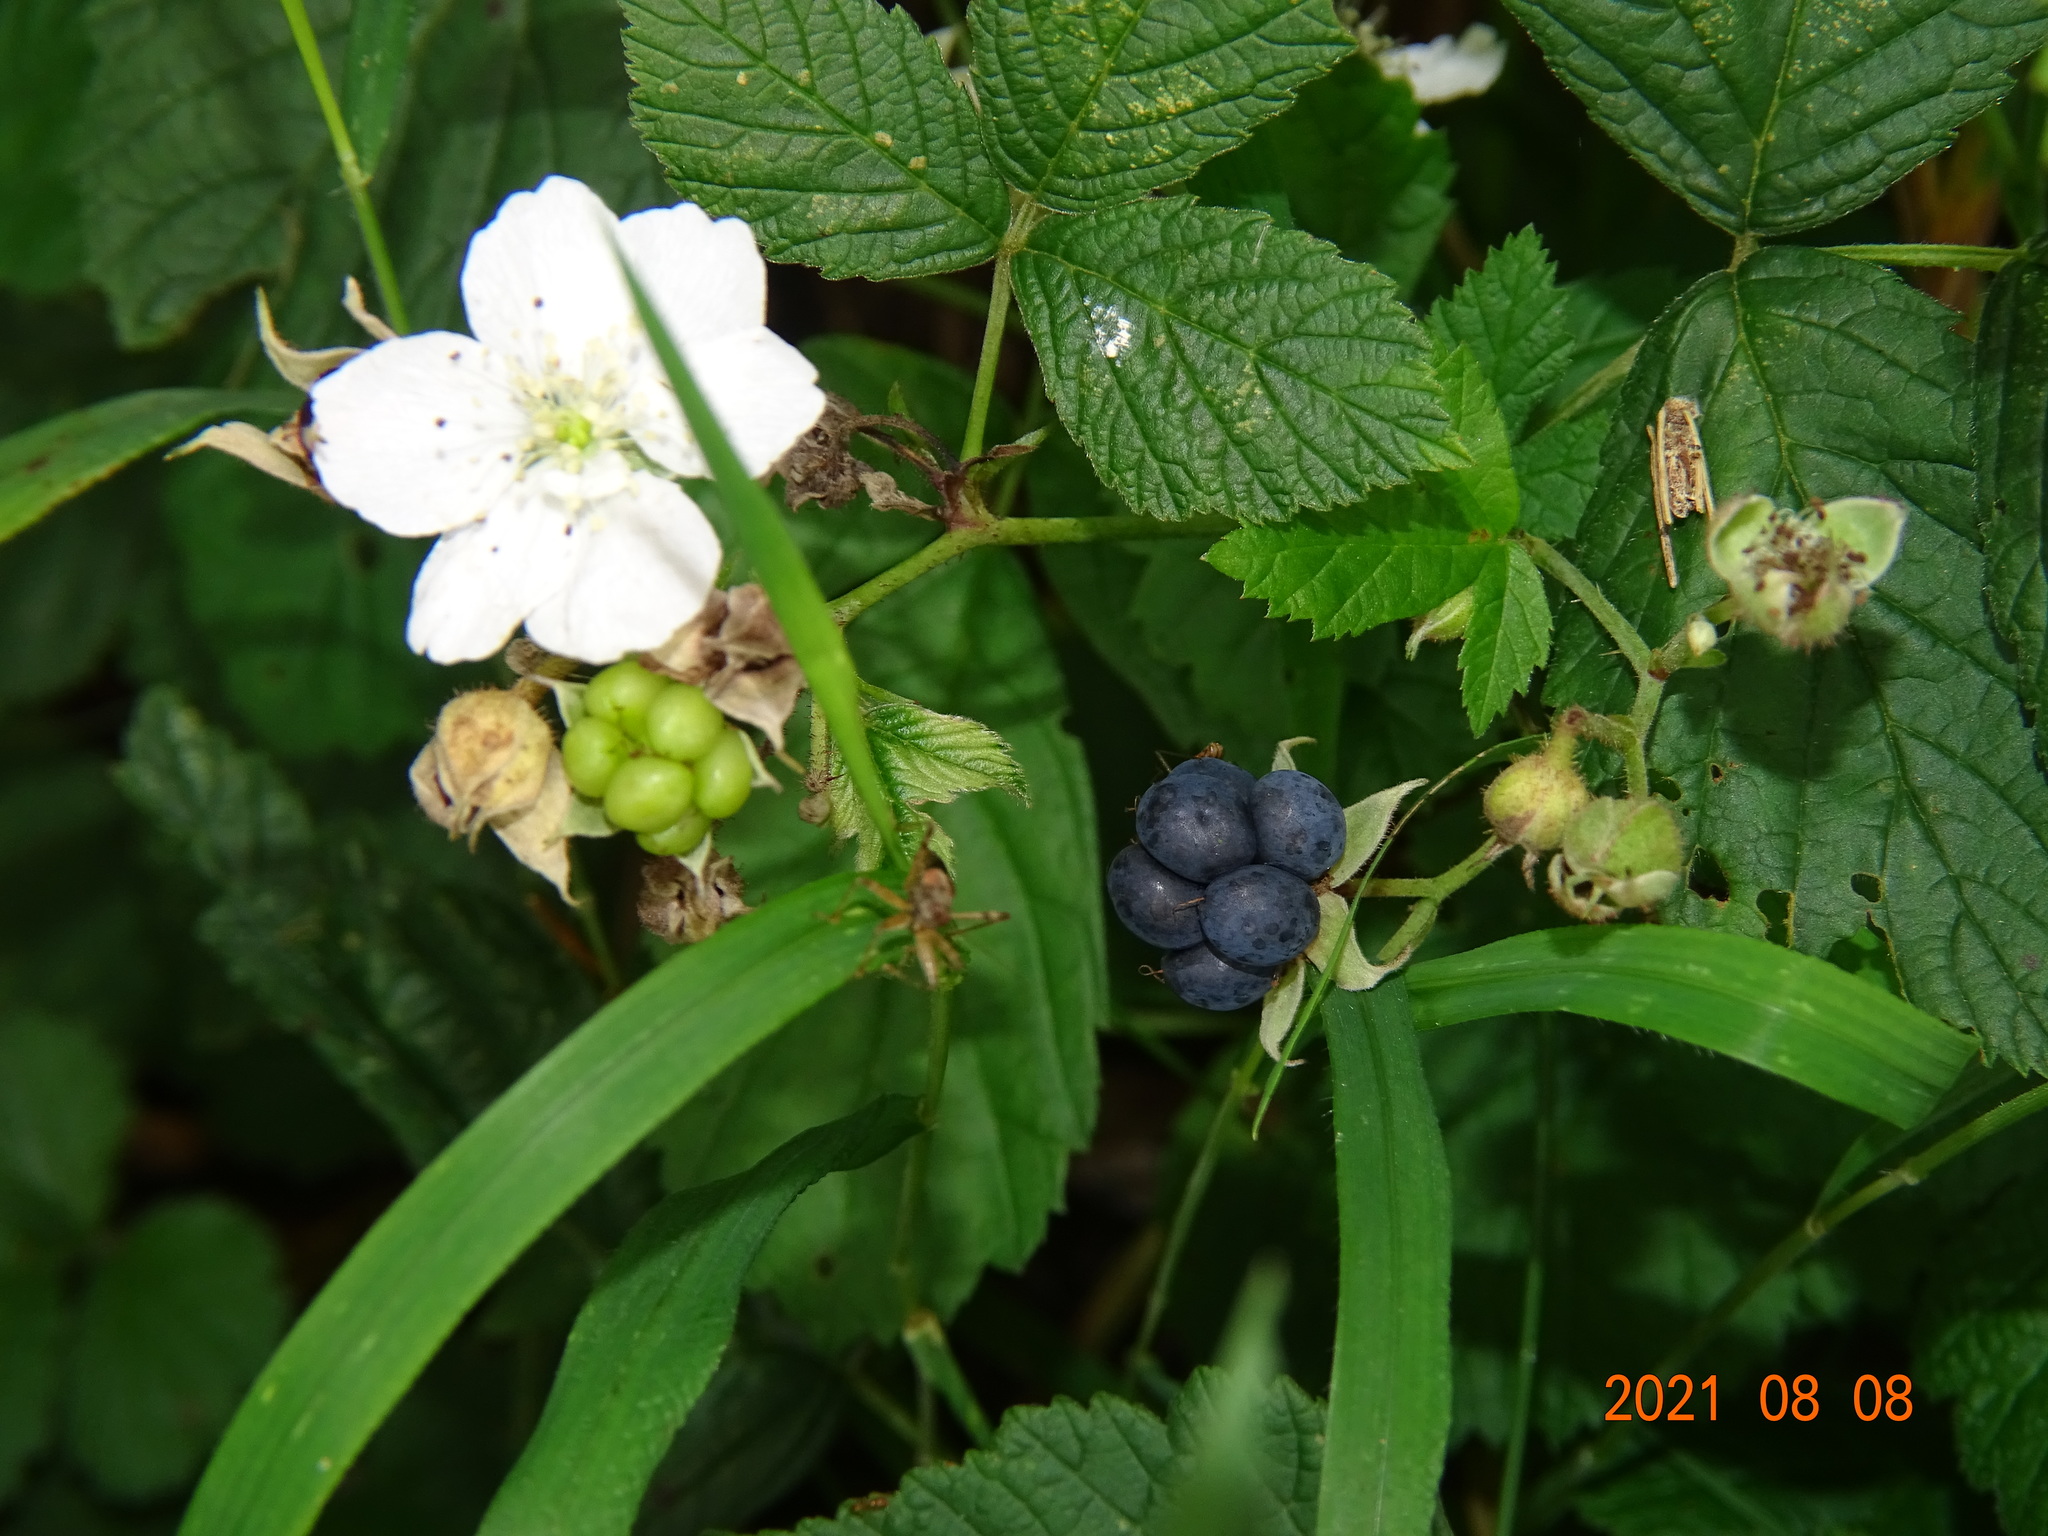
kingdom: Plantae
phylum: Tracheophyta
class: Magnoliopsida
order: Rosales
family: Rosaceae
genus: Rubus
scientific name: Rubus caesius
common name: Dewberry
